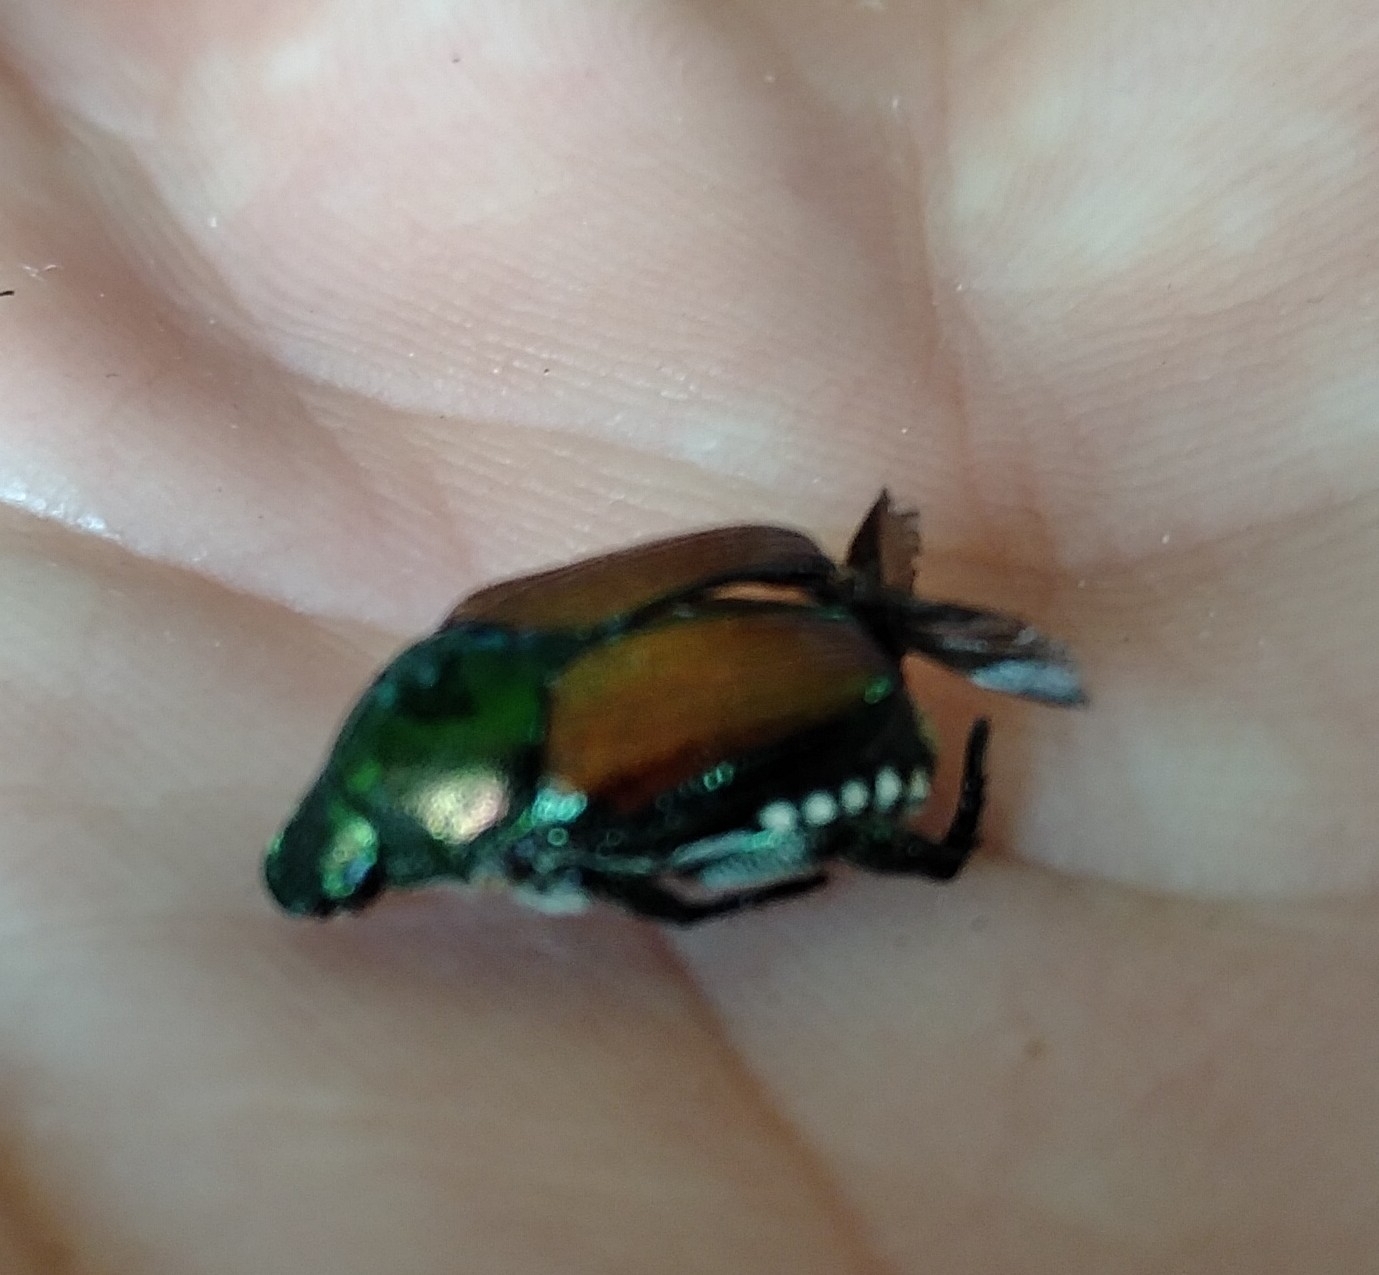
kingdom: Animalia
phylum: Arthropoda
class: Insecta
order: Coleoptera
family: Scarabaeidae
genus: Popillia
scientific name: Popillia japonica
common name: Japanese beetle
